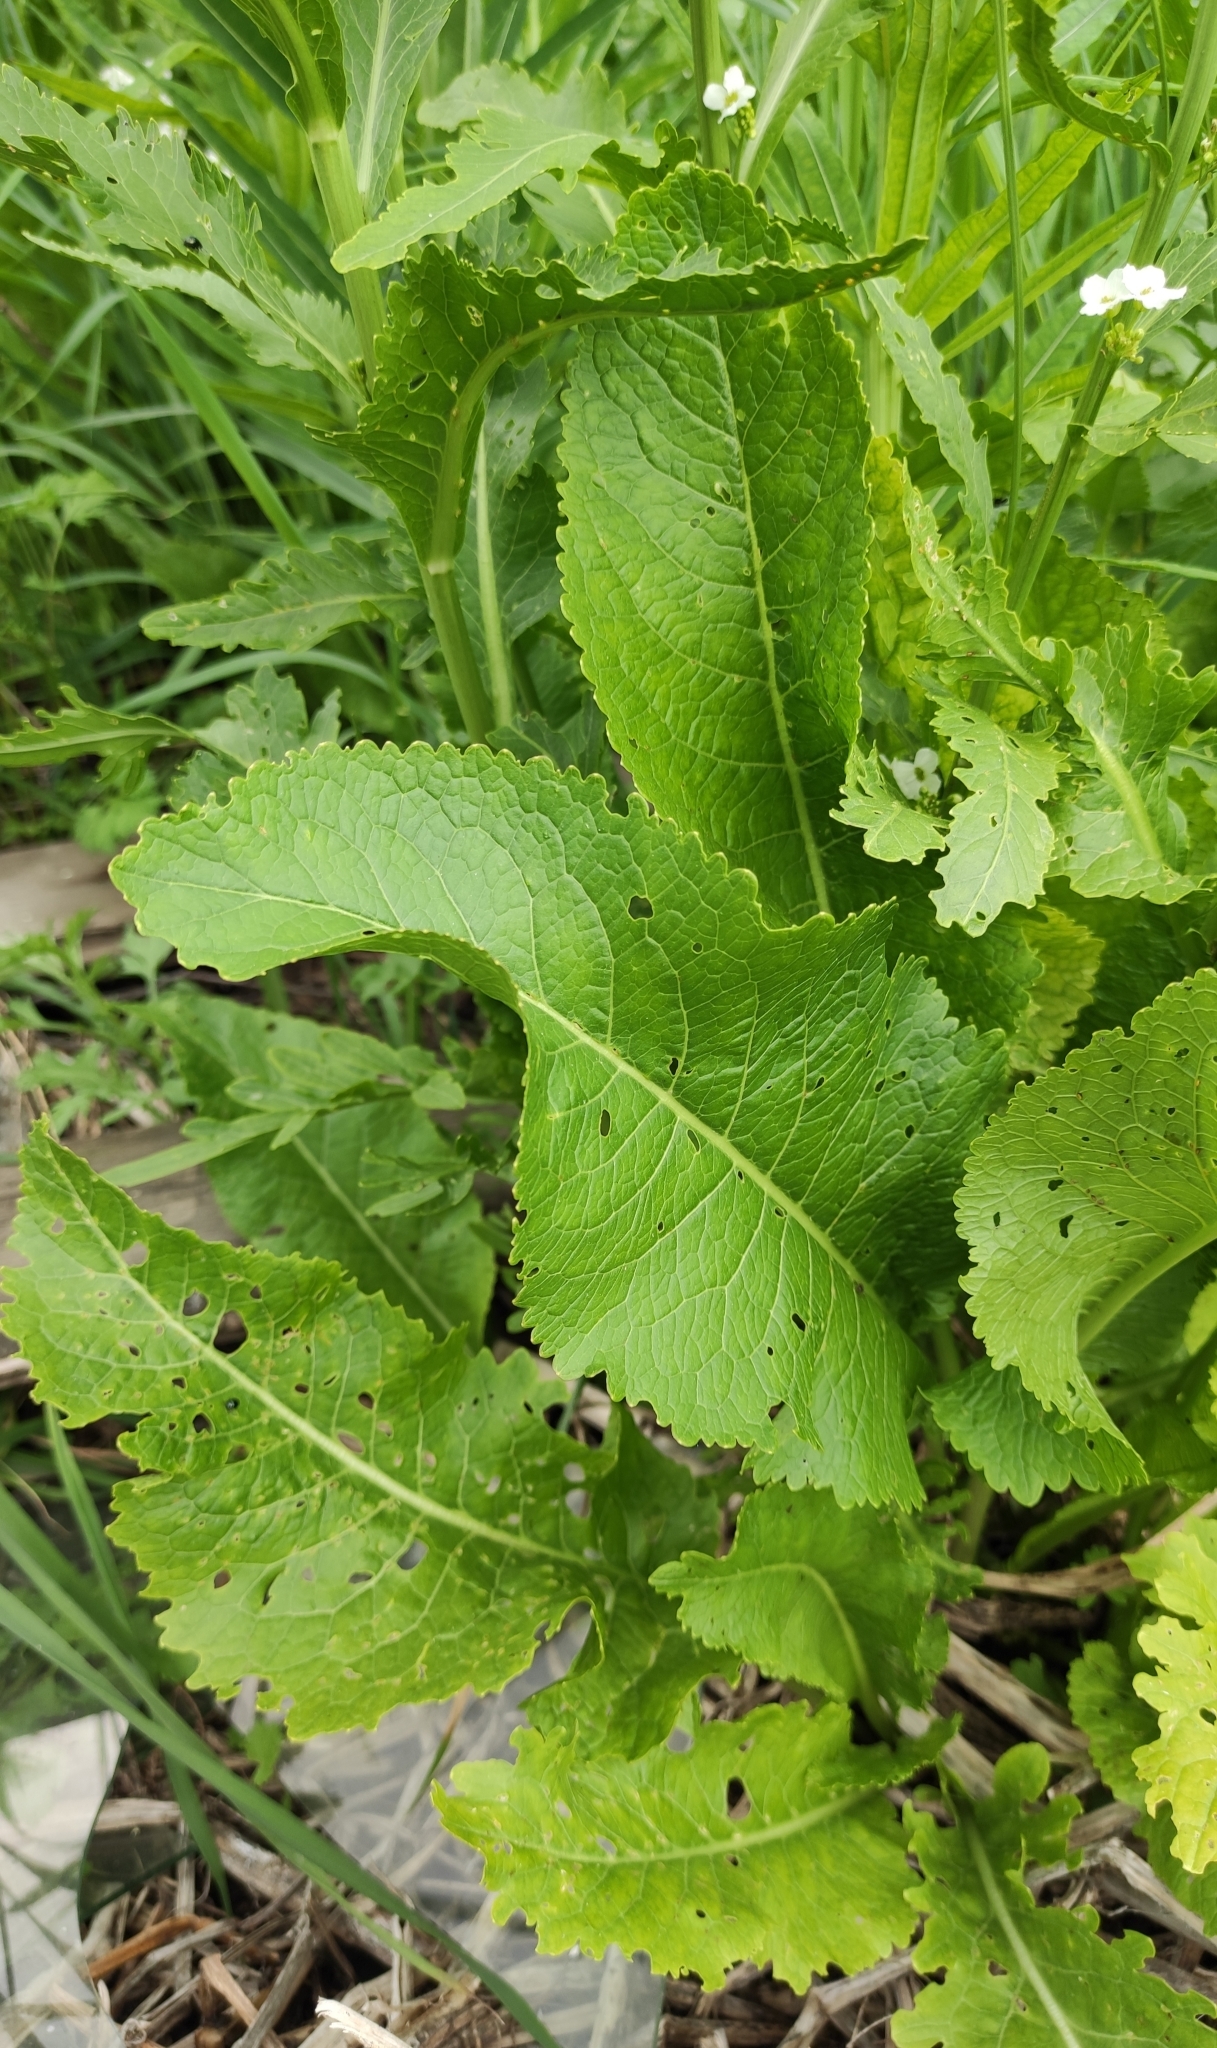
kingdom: Plantae
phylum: Tracheophyta
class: Magnoliopsida
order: Brassicales
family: Brassicaceae
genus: Armoracia
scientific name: Armoracia rusticana
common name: Horseradish
